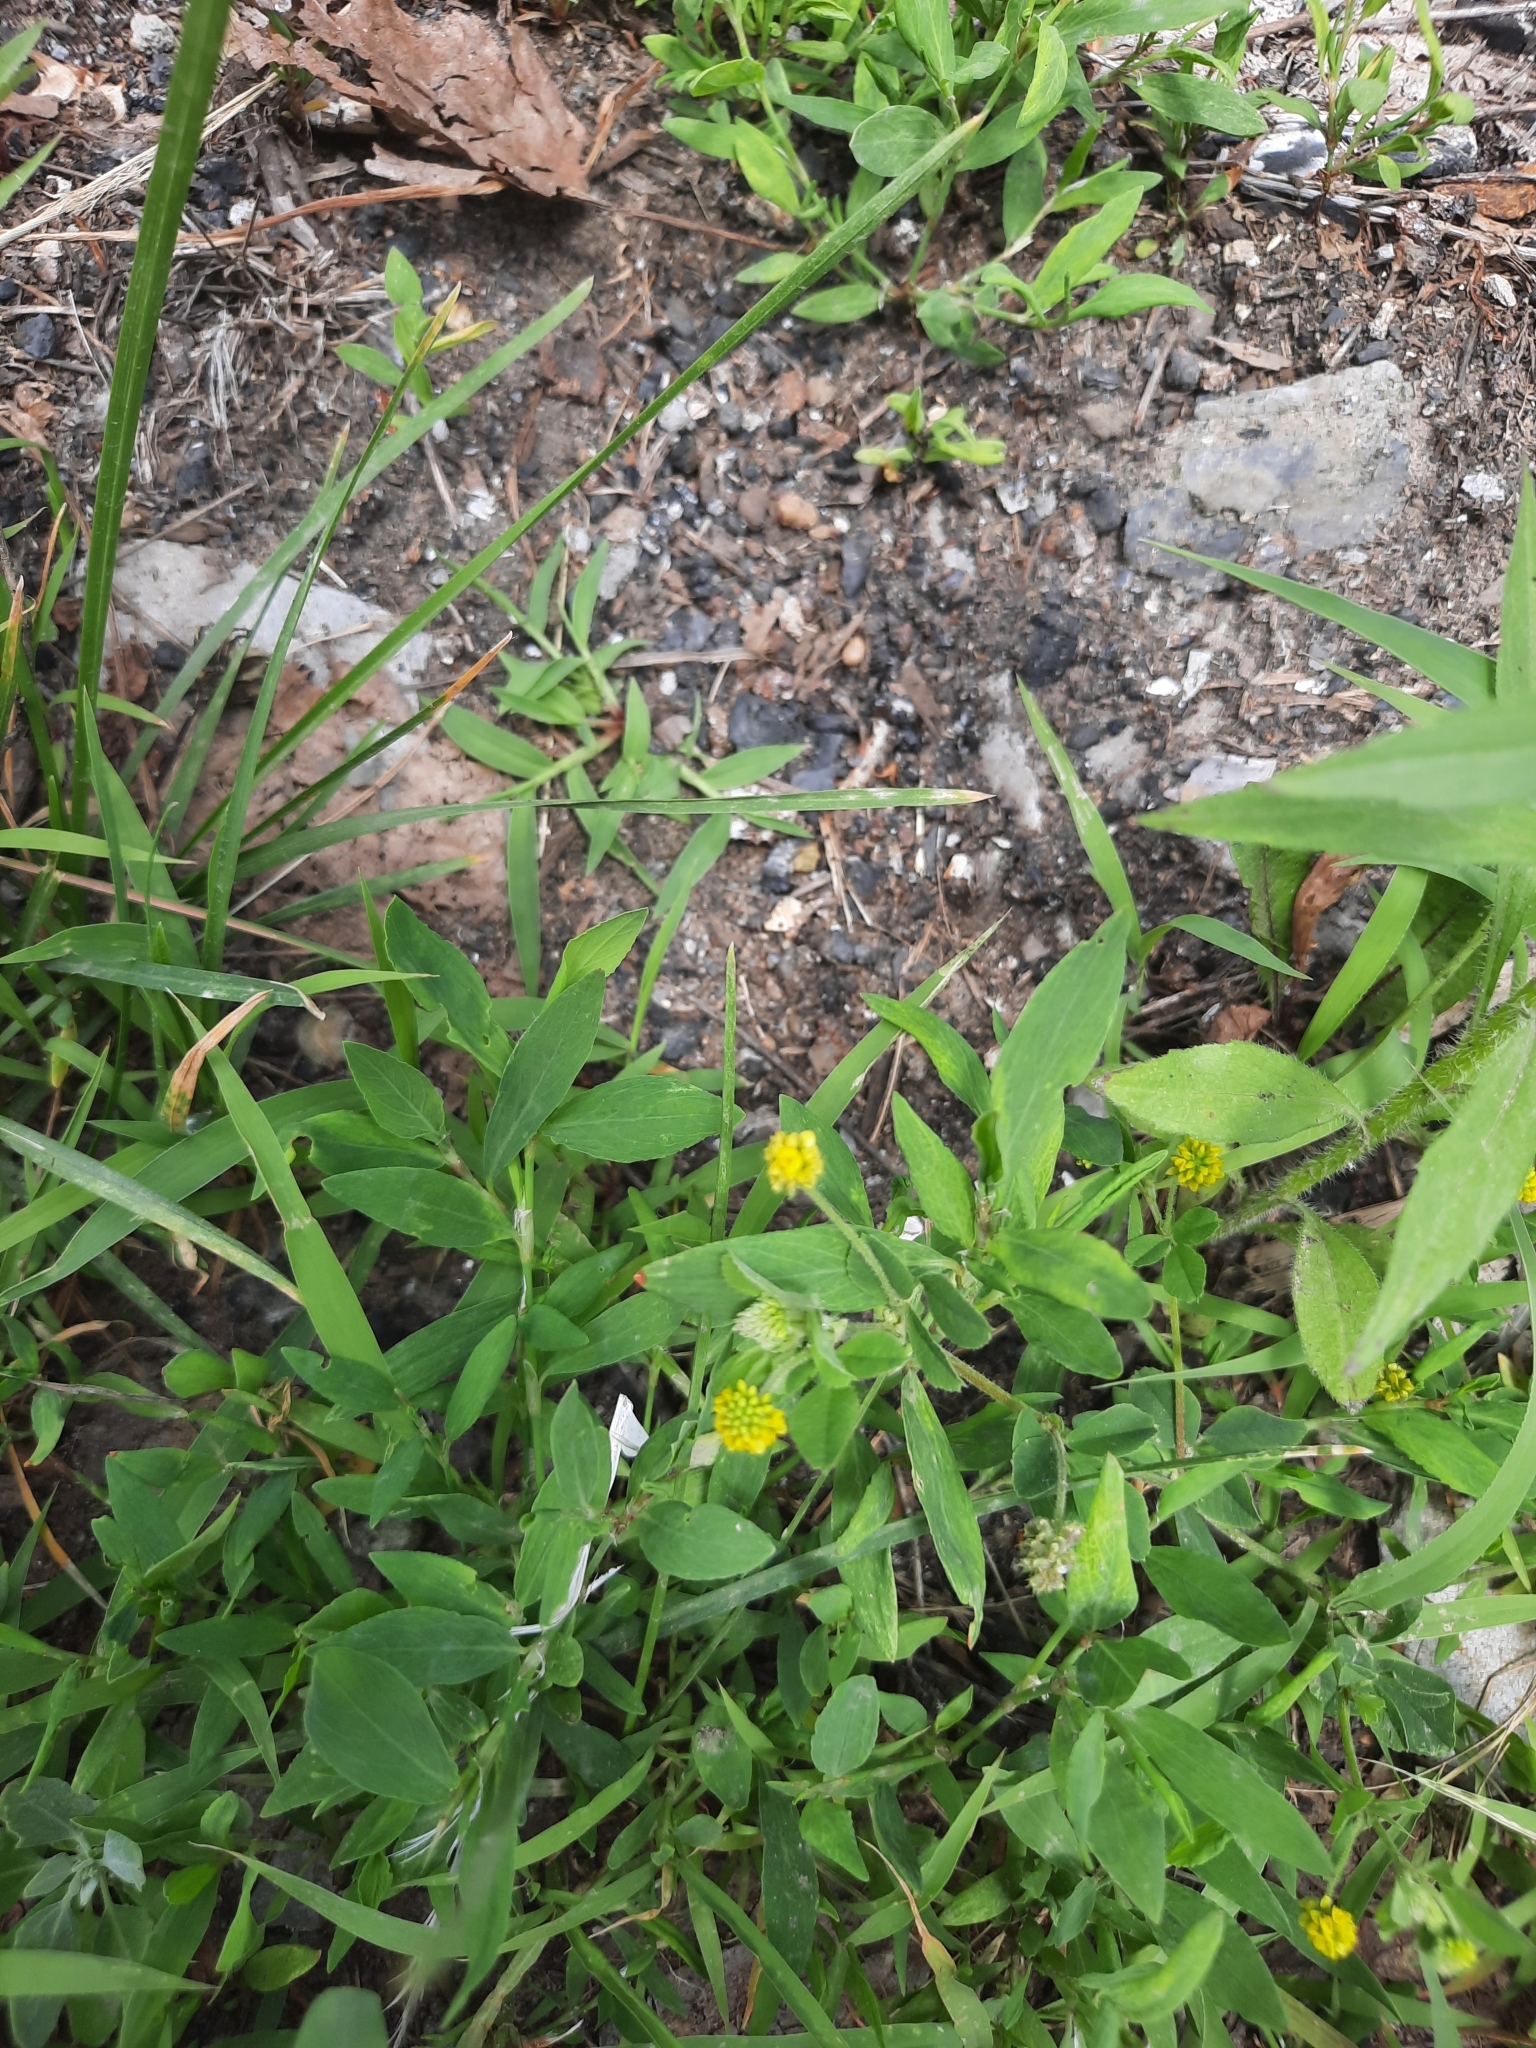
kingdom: Plantae
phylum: Tracheophyta
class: Magnoliopsida
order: Fabales
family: Fabaceae
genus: Medicago
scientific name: Medicago lupulina
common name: Black medick
